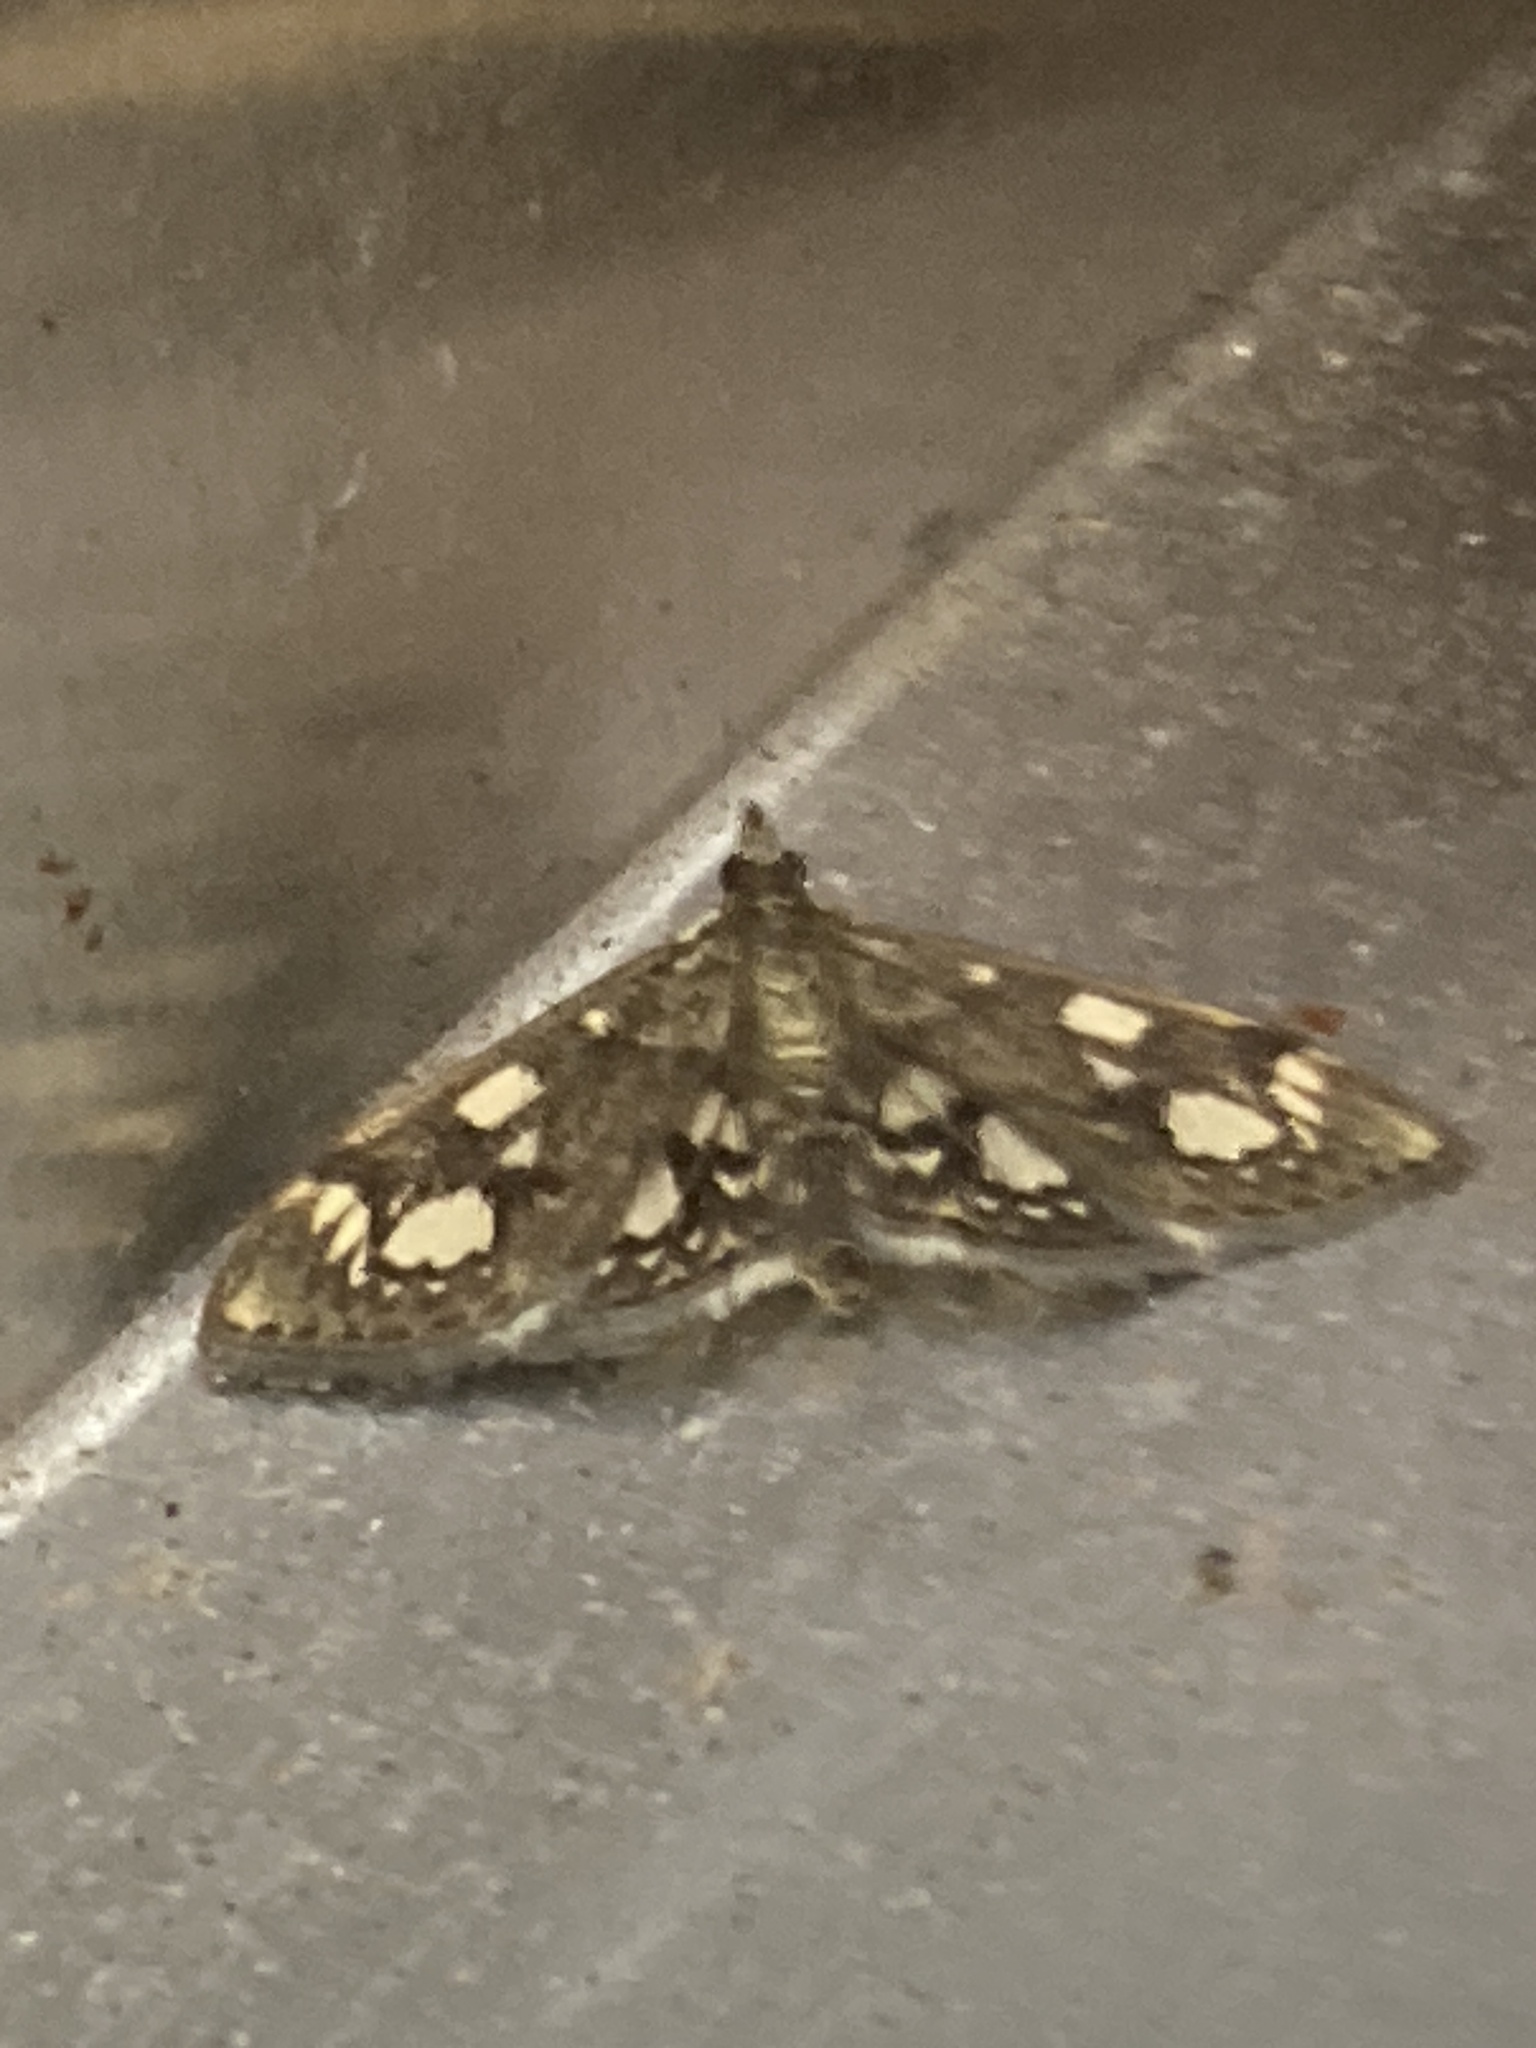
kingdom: Animalia
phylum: Arthropoda
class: Insecta
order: Lepidoptera
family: Crambidae
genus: Anania
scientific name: Anania coronata
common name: Elder pearl
